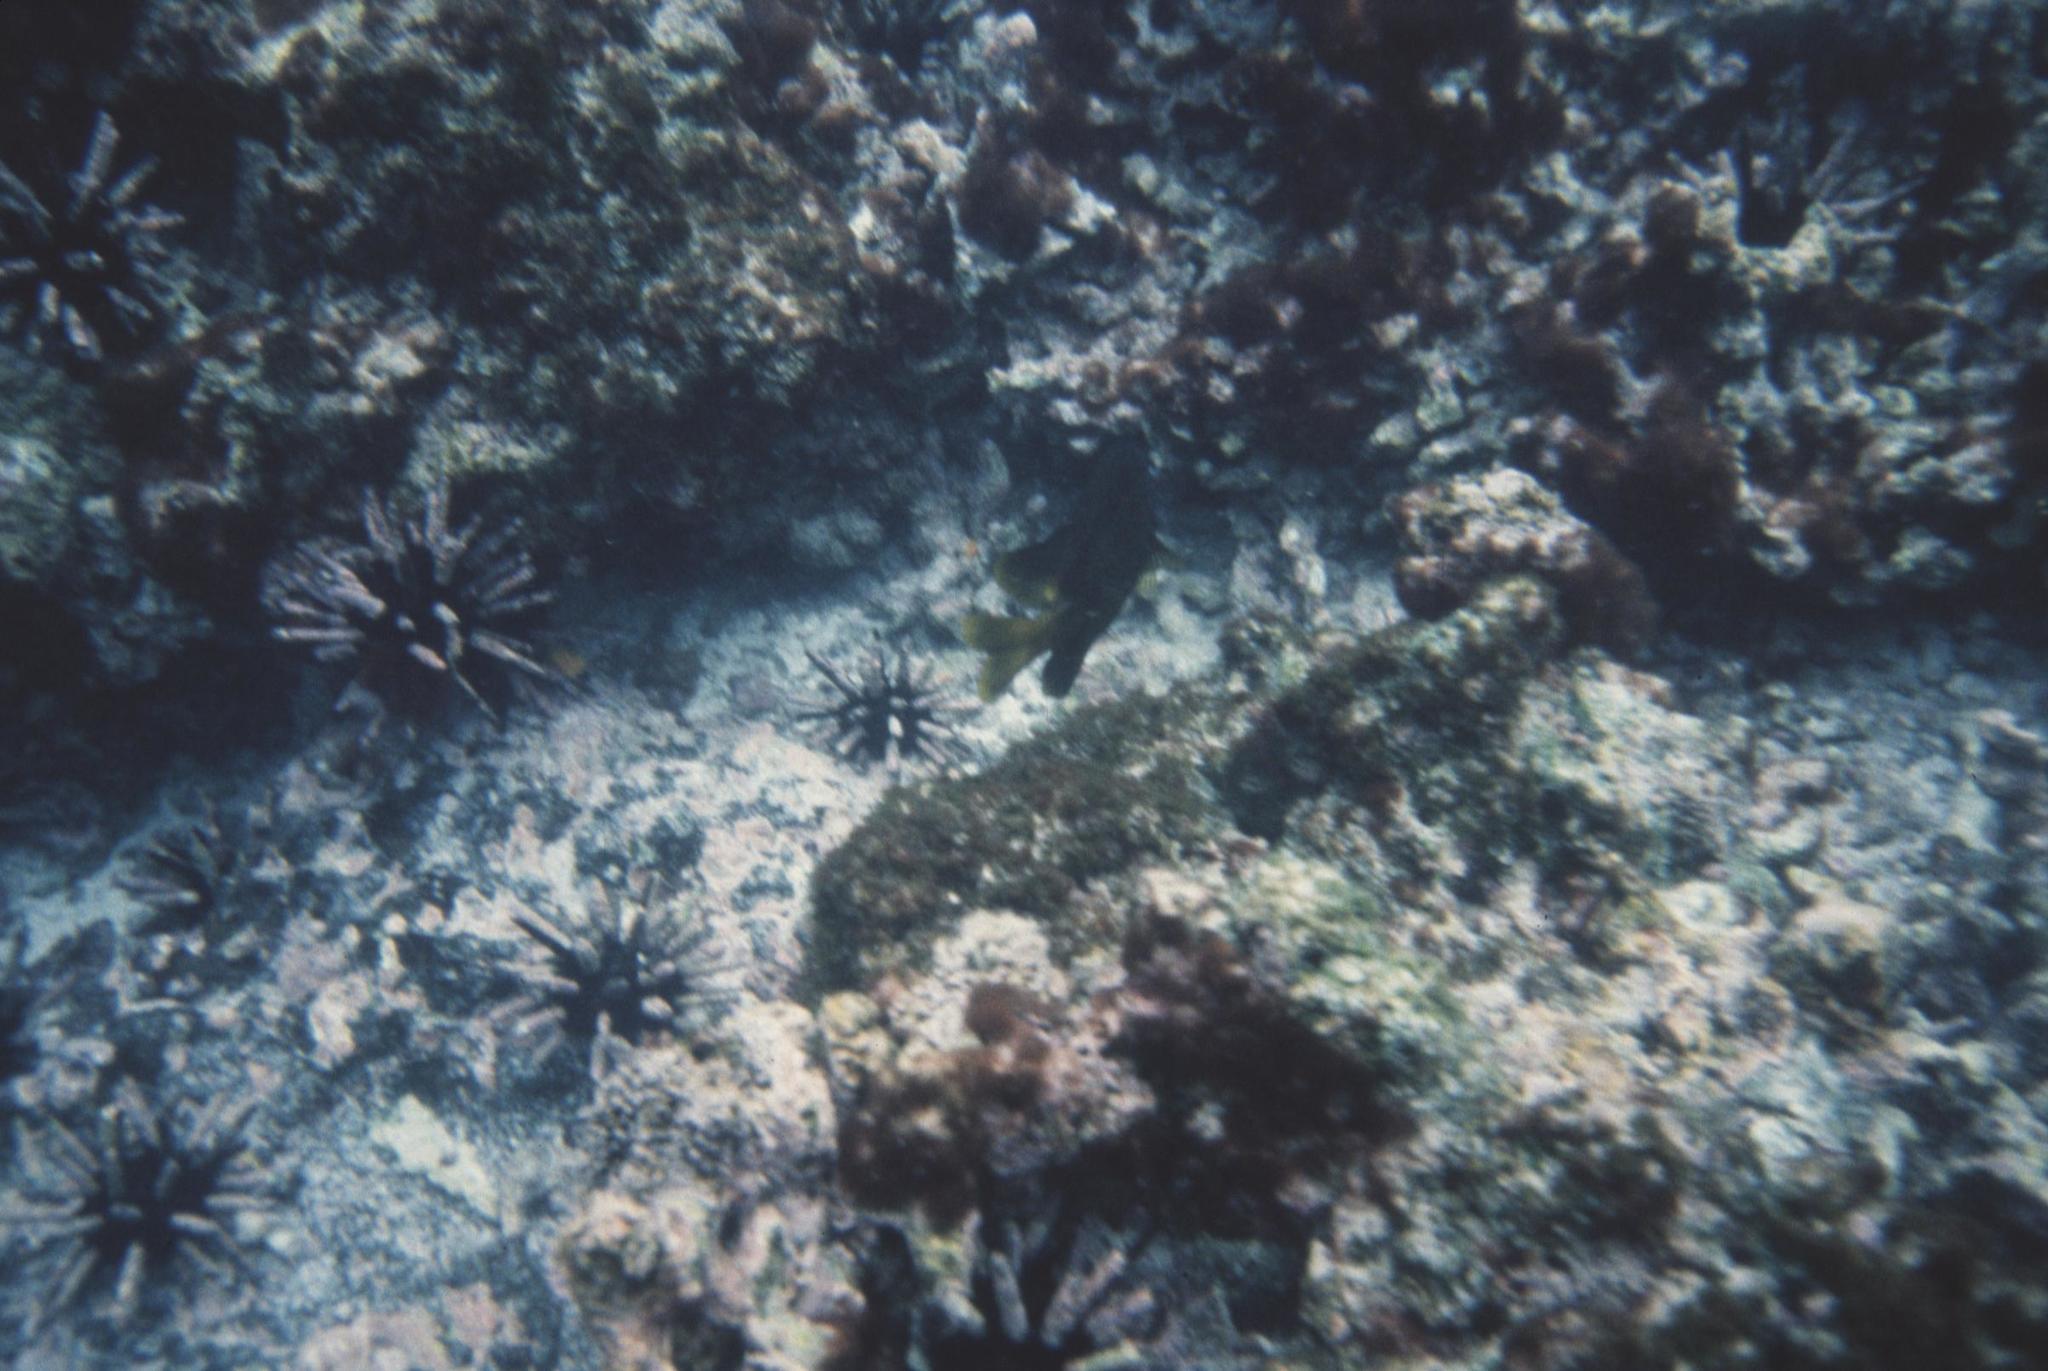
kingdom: Animalia
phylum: Echinodermata
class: Echinoidea
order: Cidaroida
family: Cidaridae
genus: Eucidaris
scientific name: Eucidaris galapagensis
